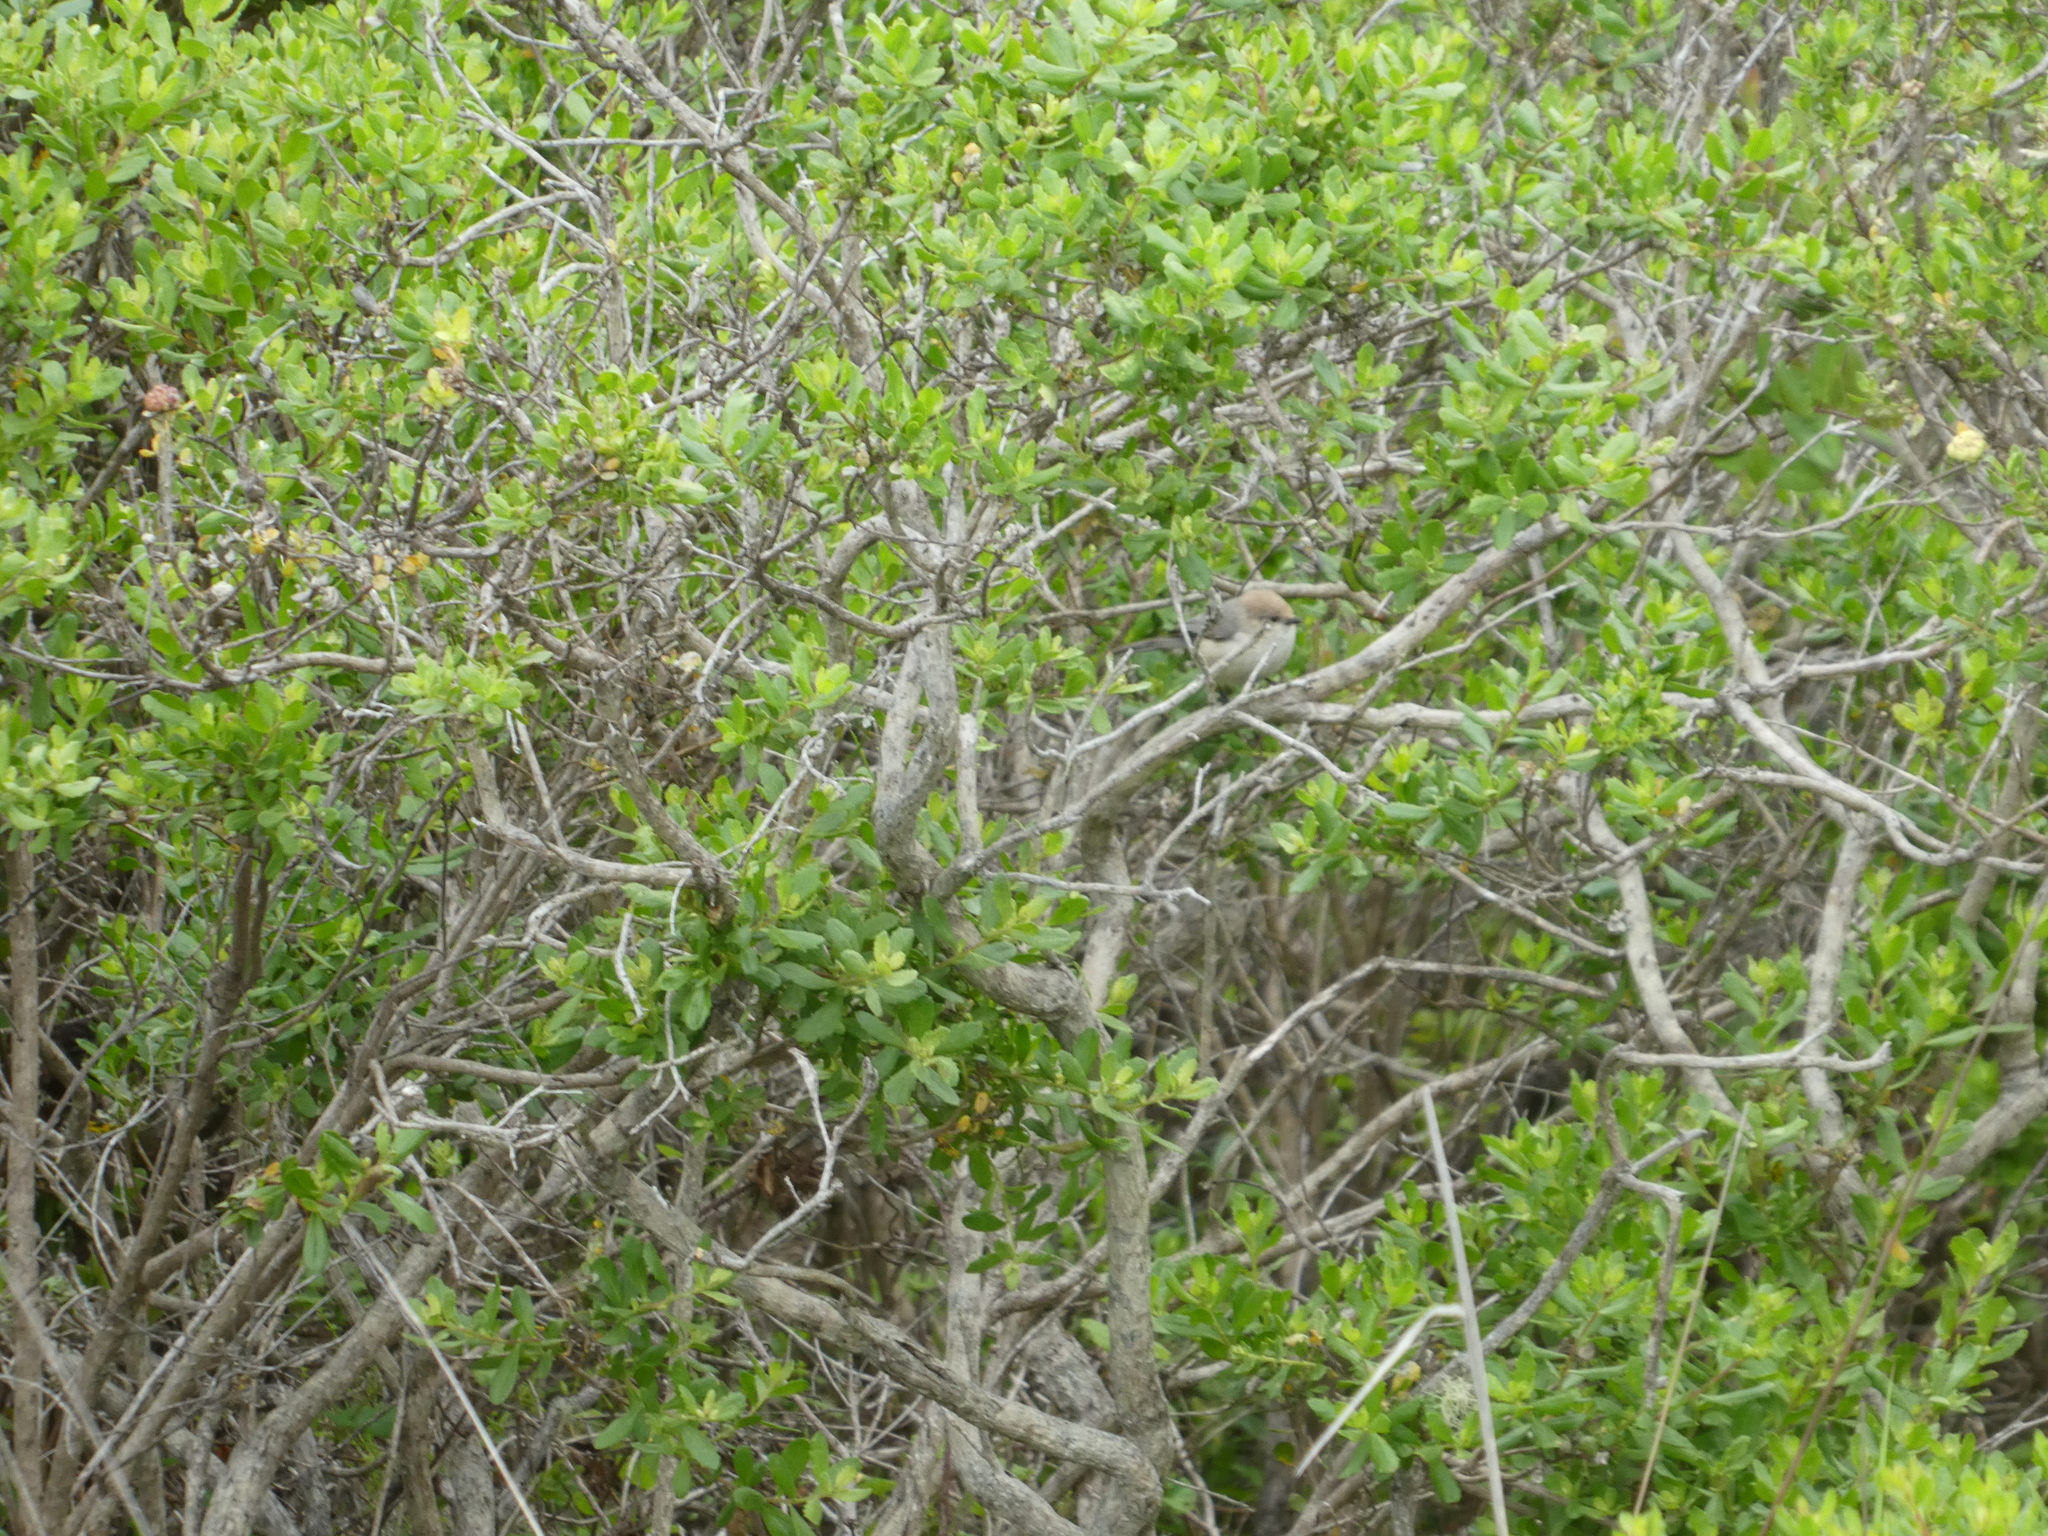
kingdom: Animalia
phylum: Chordata
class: Aves
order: Passeriformes
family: Aegithalidae
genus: Psaltriparus
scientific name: Psaltriparus minimus
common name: American bushtit
